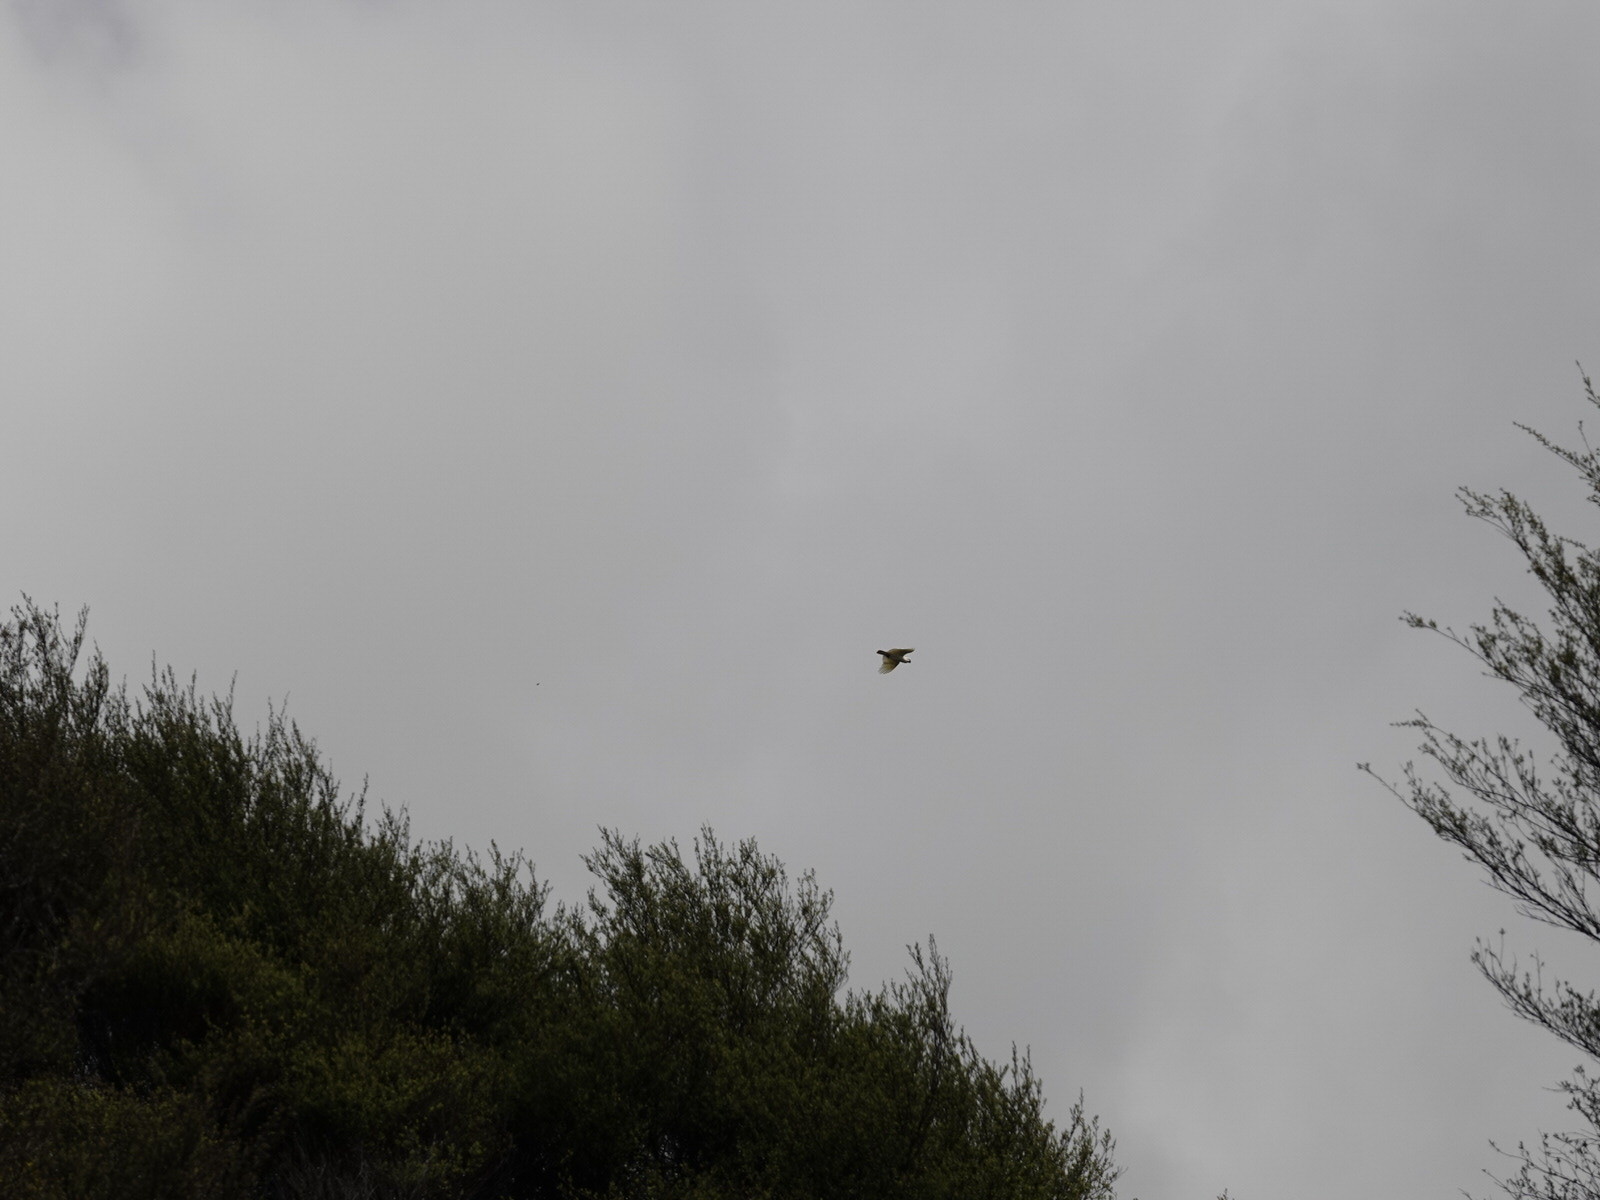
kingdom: Animalia
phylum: Chordata
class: Aves
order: Psittaciformes
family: Psittacidae
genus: Cacatua
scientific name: Cacatua galerita
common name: Sulphur-crested cockatoo
